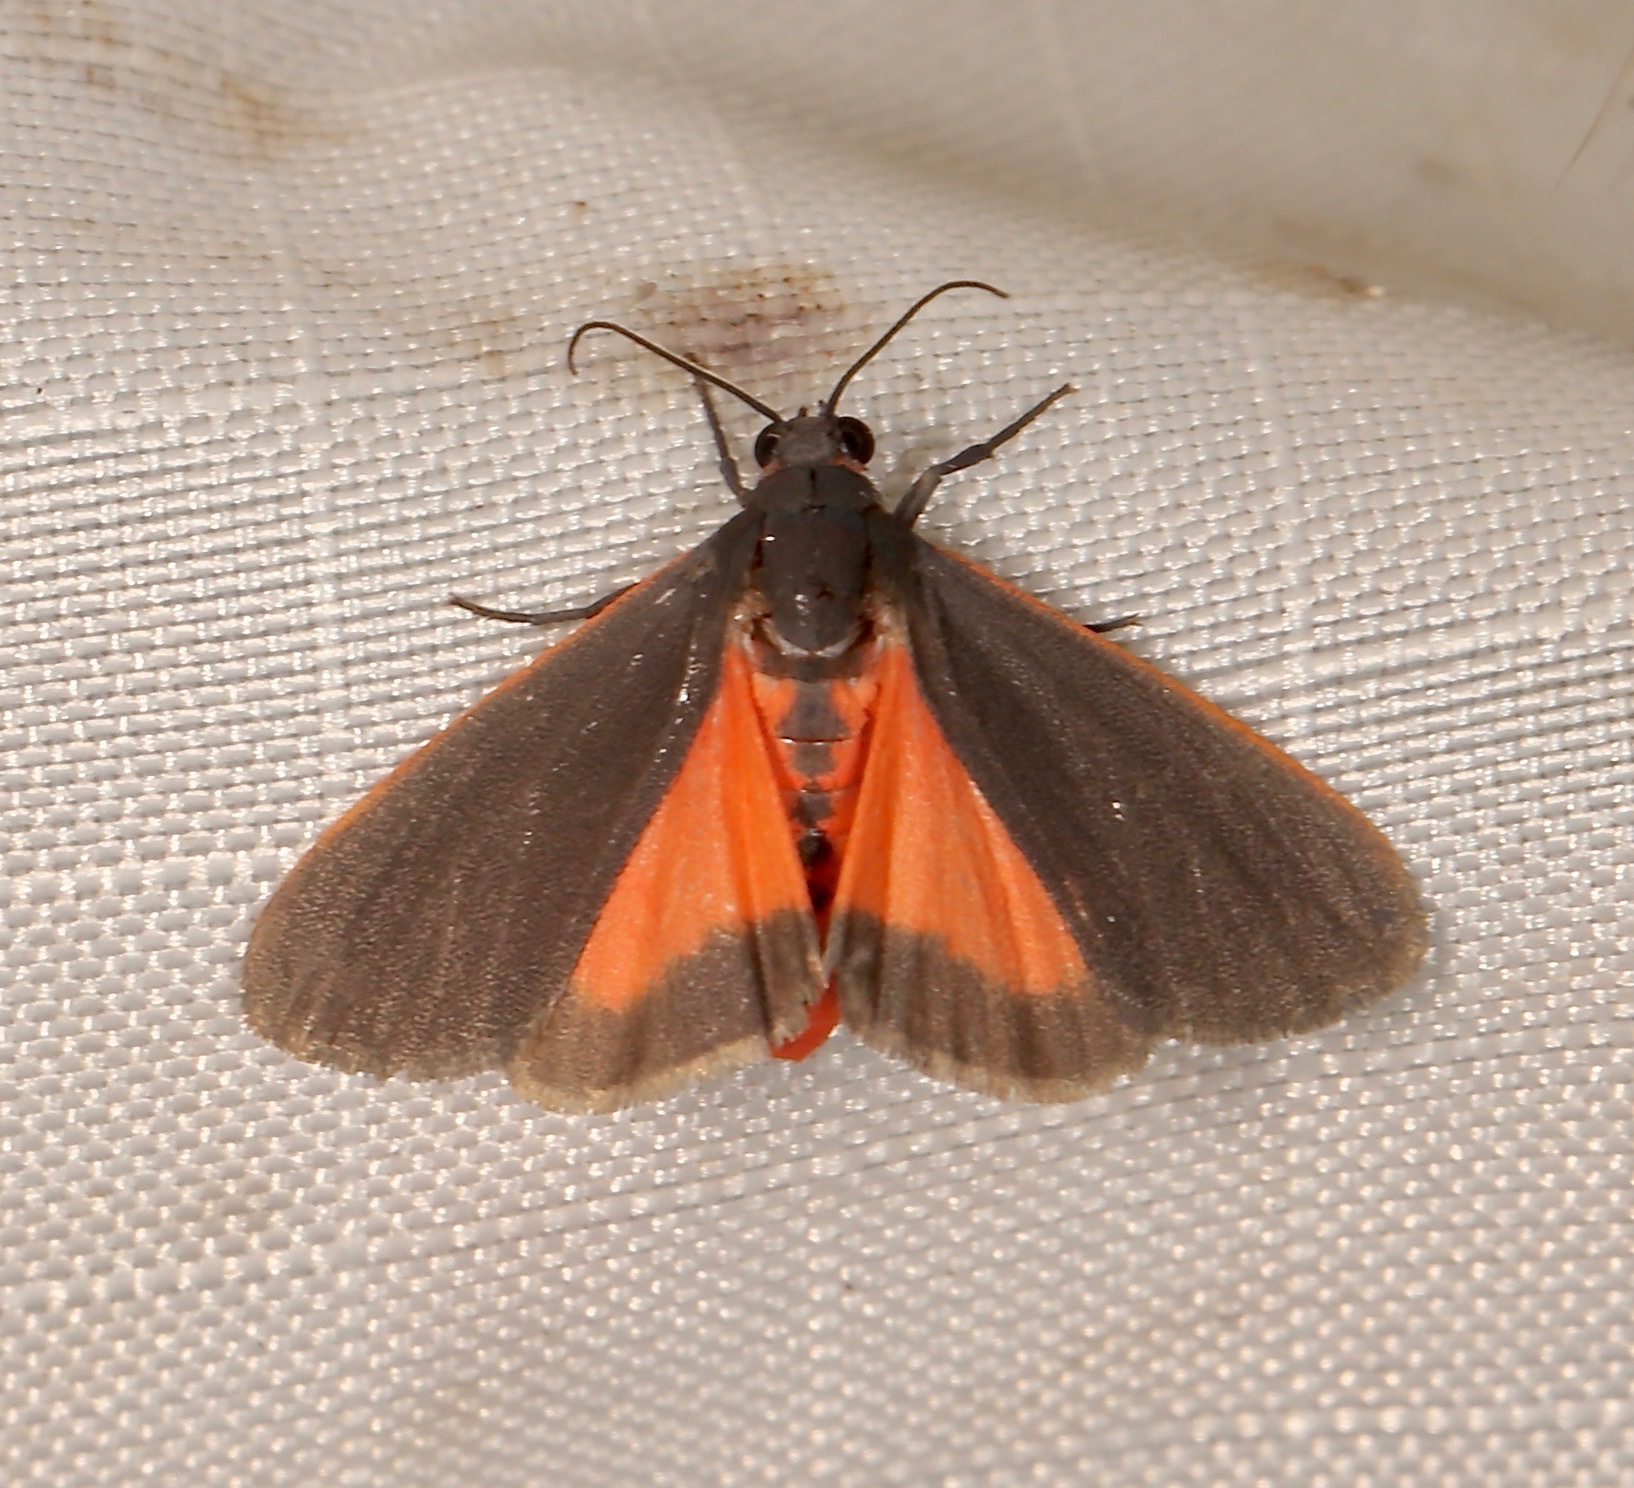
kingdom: Animalia
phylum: Arthropoda
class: Insecta
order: Lepidoptera
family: Erebidae
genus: Virbia
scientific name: Virbia laeta
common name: Joyful holomelina moth
